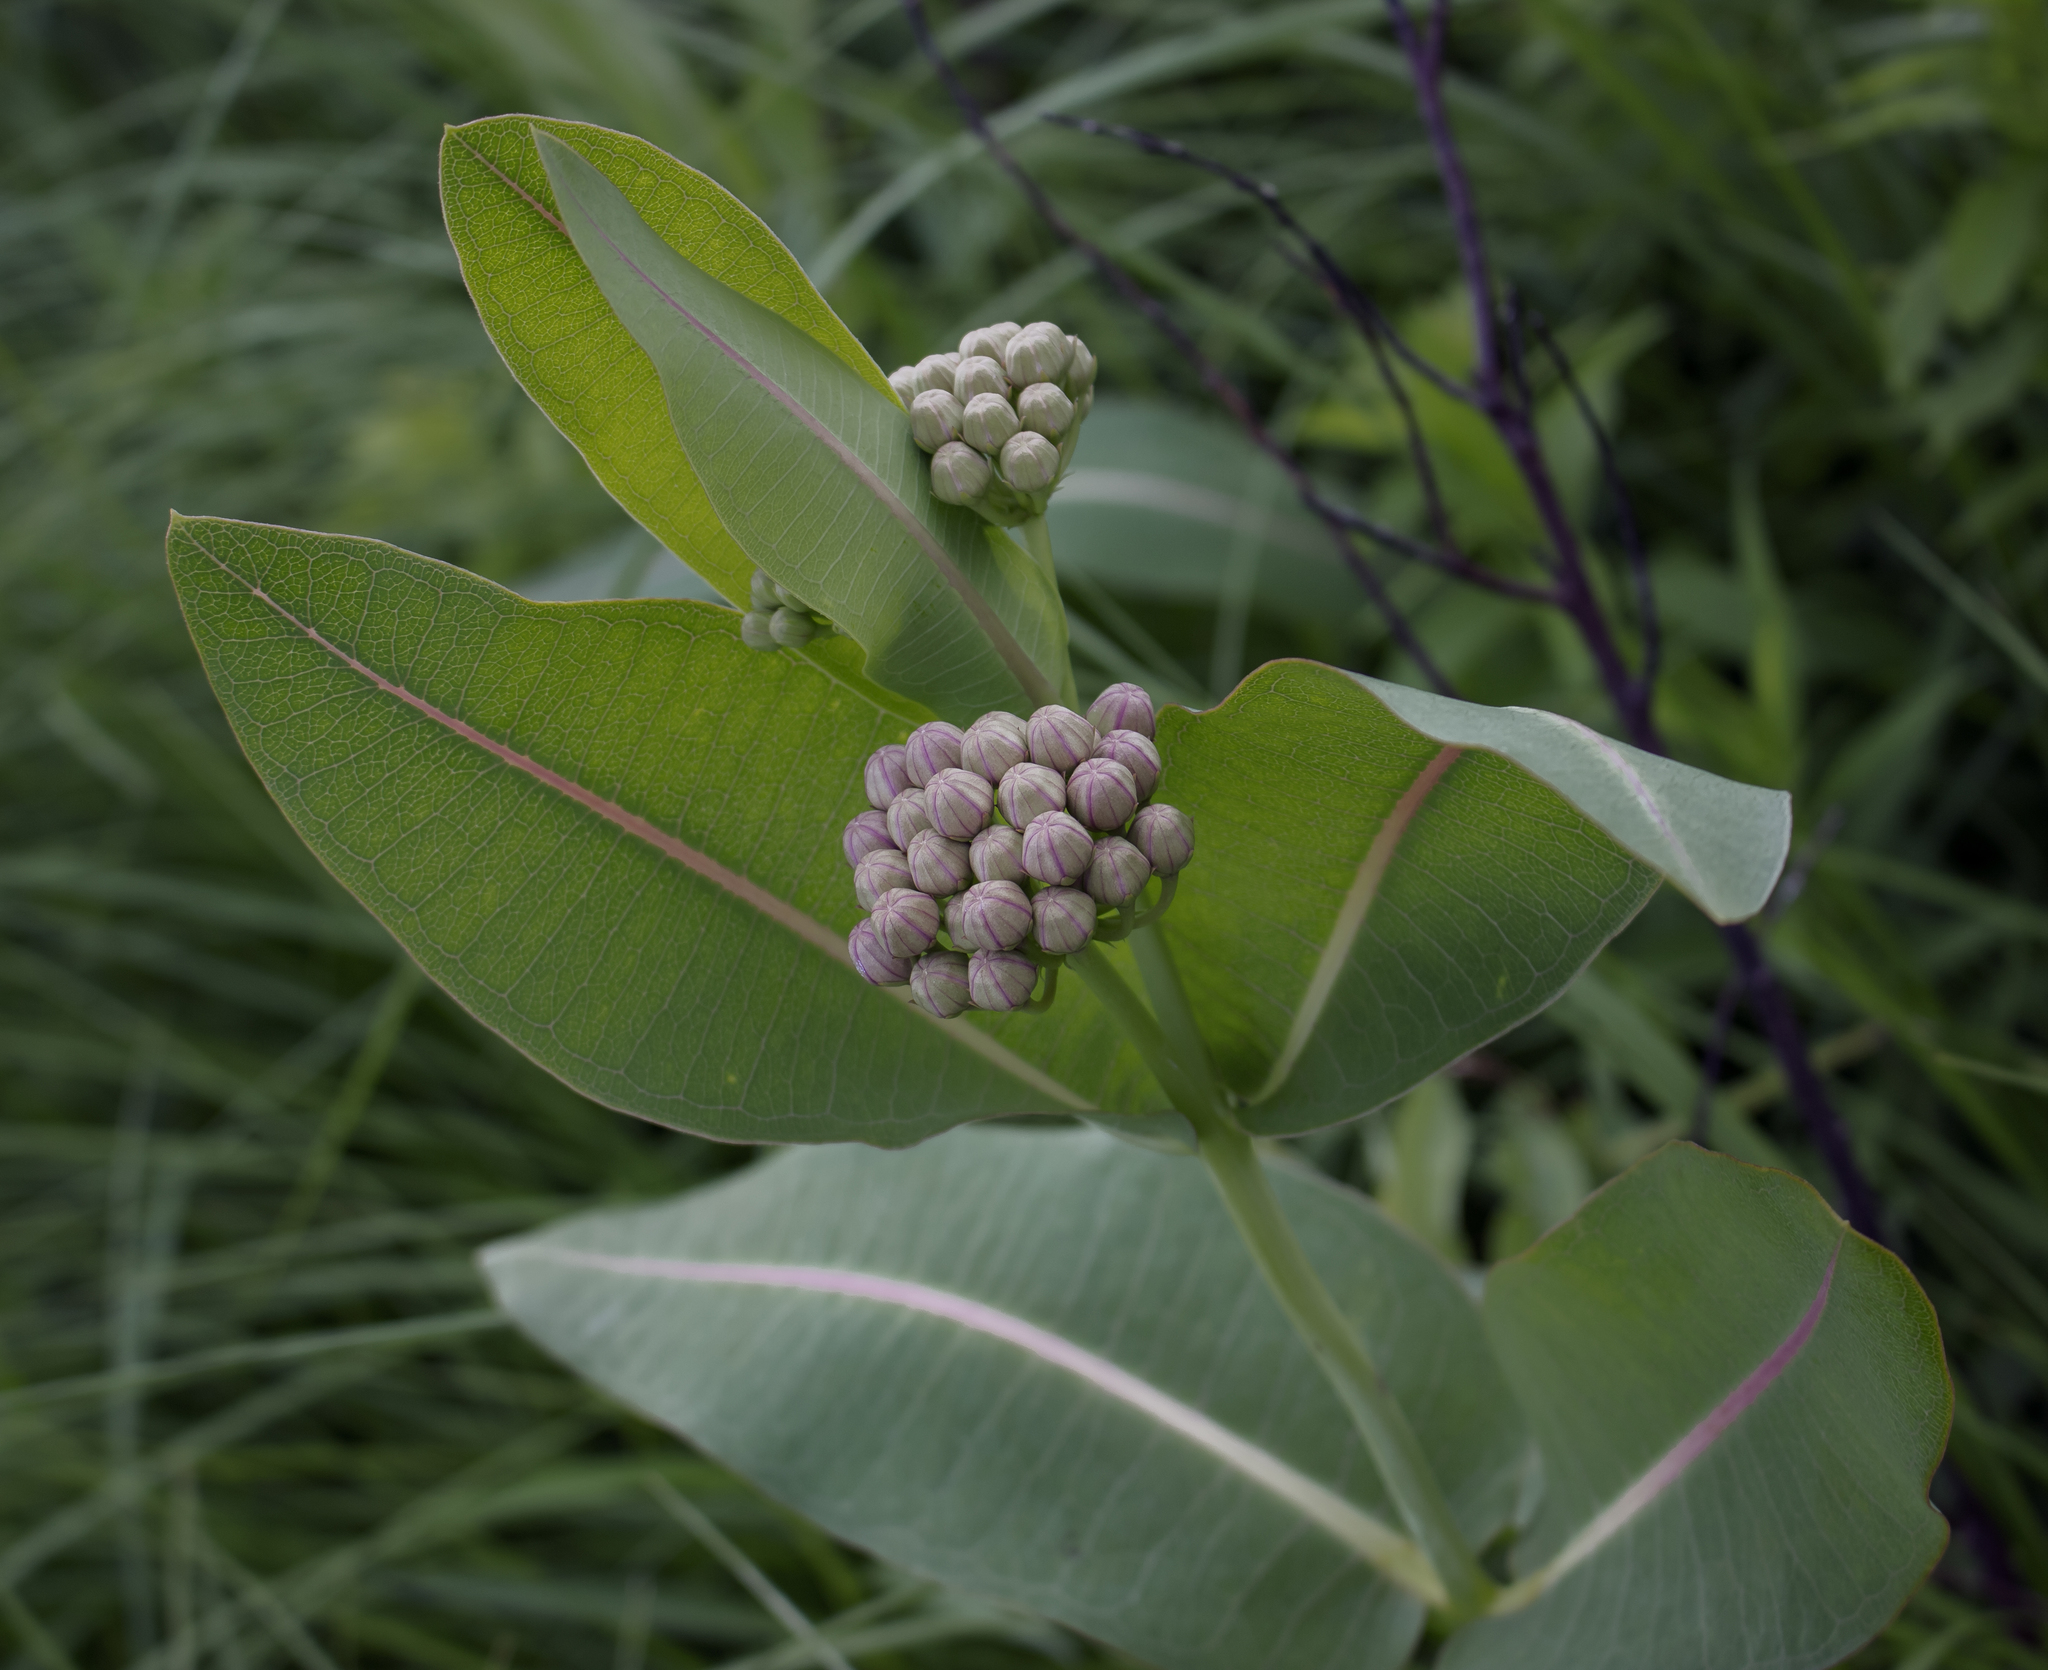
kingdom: Plantae
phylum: Tracheophyta
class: Magnoliopsida
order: Gentianales
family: Apocynaceae
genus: Asclepias
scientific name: Asclepias sullivantii
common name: Prairie milkweed
